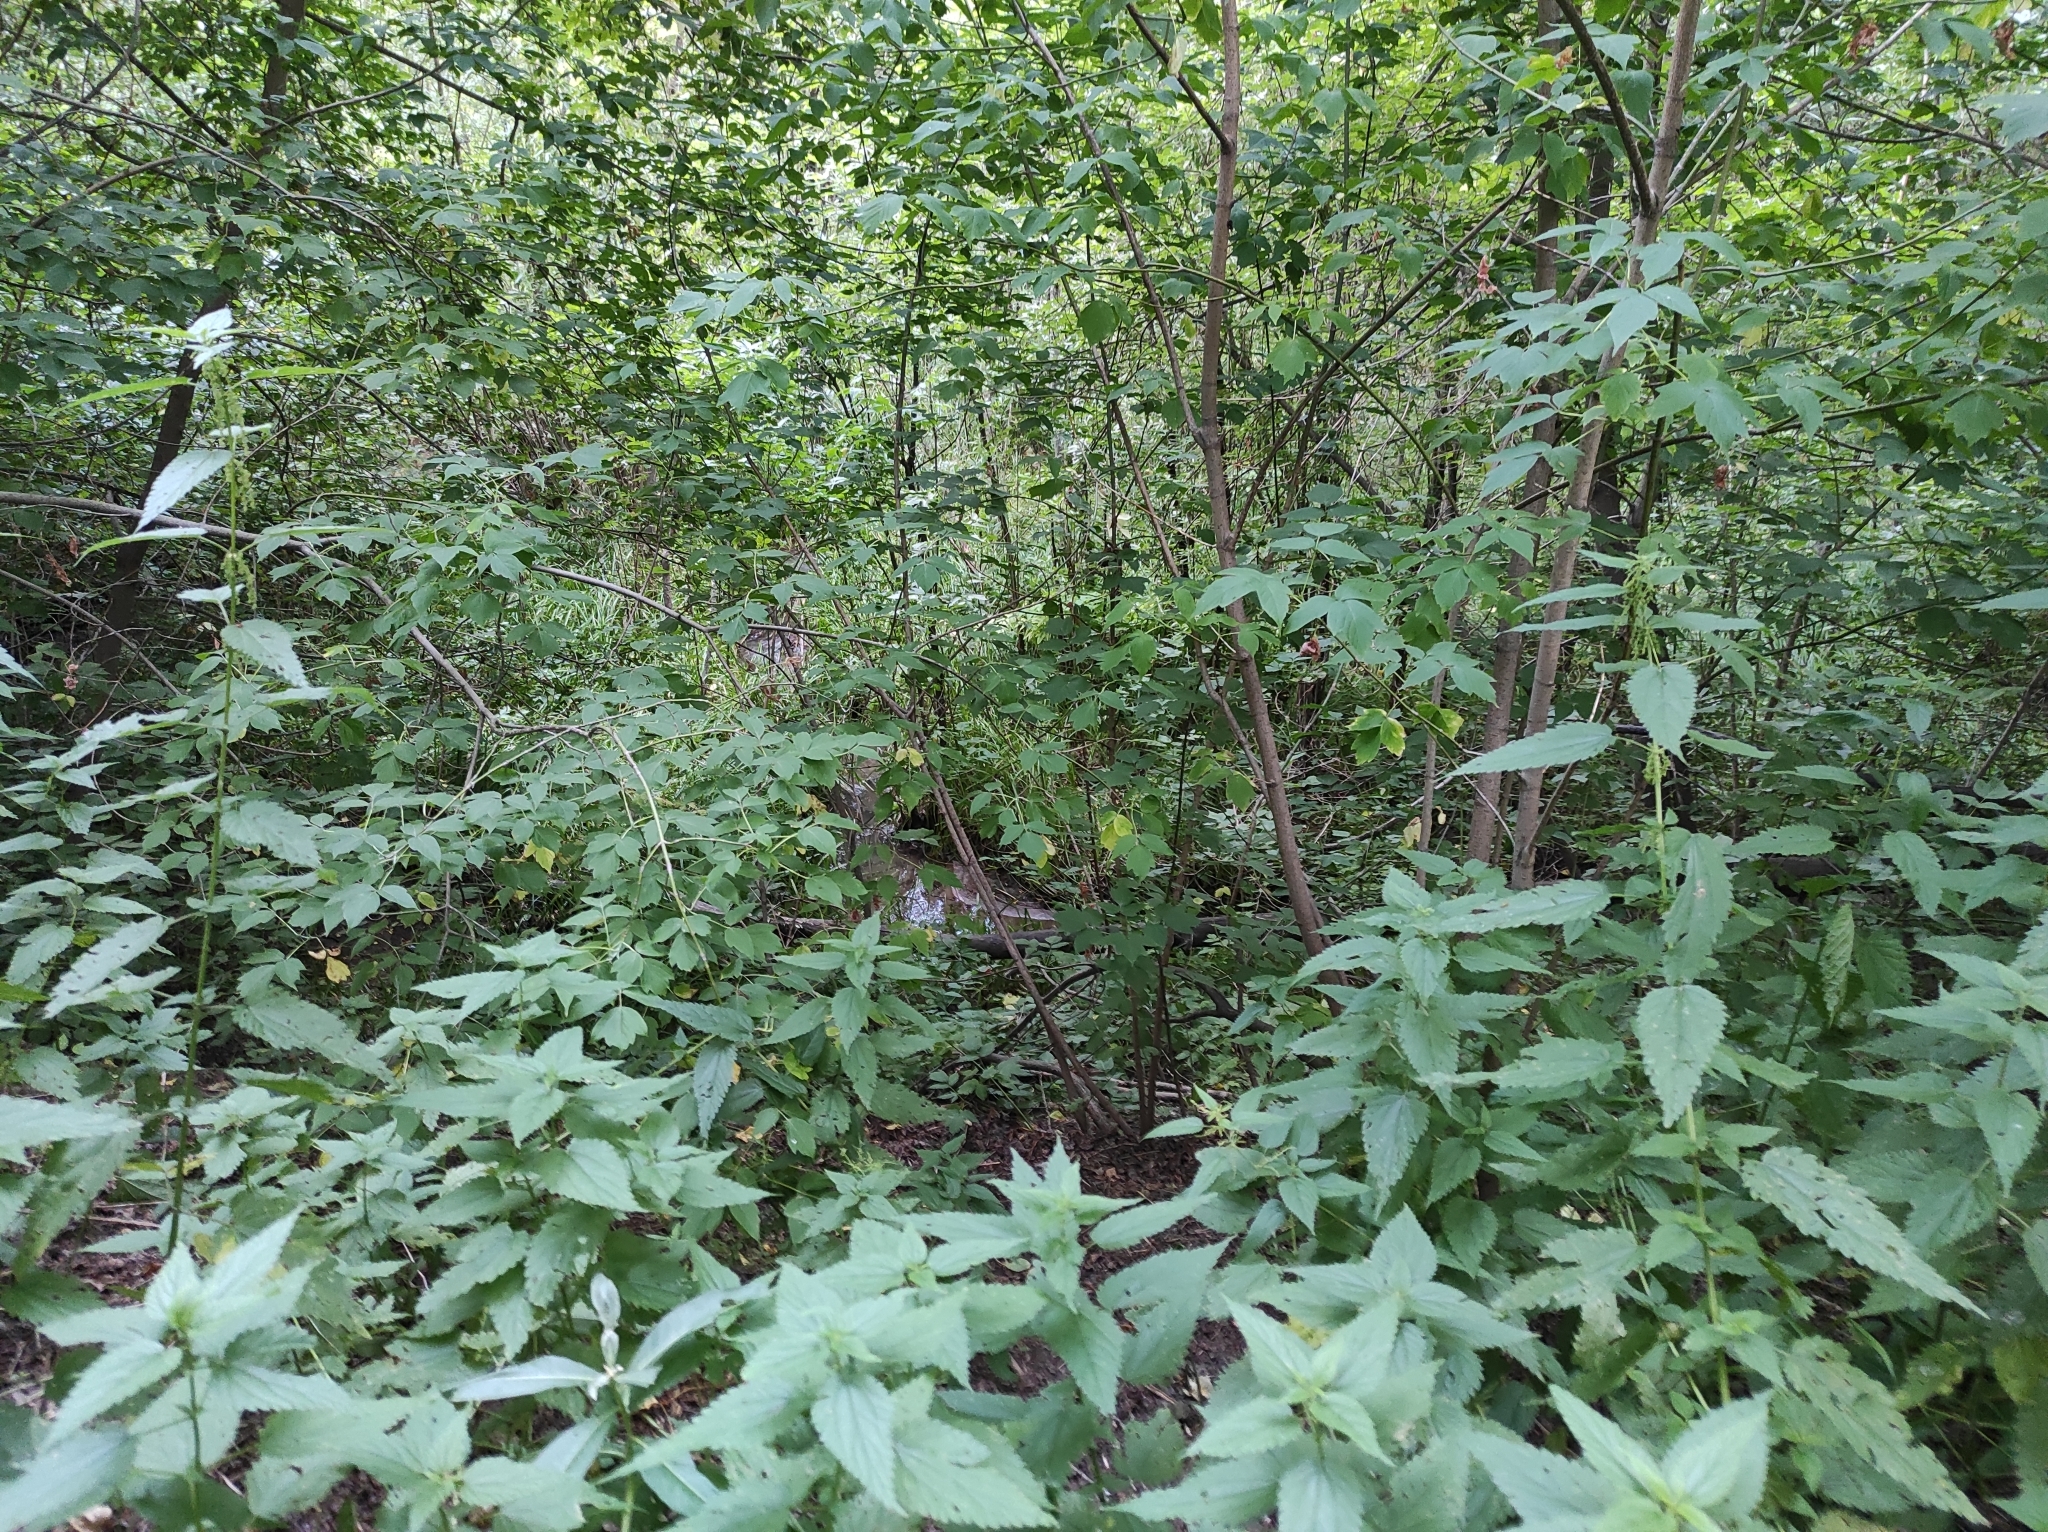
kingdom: Plantae
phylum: Tracheophyta
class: Magnoliopsida
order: Rosales
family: Urticaceae
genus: Urtica
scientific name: Urtica dioica
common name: Common nettle
